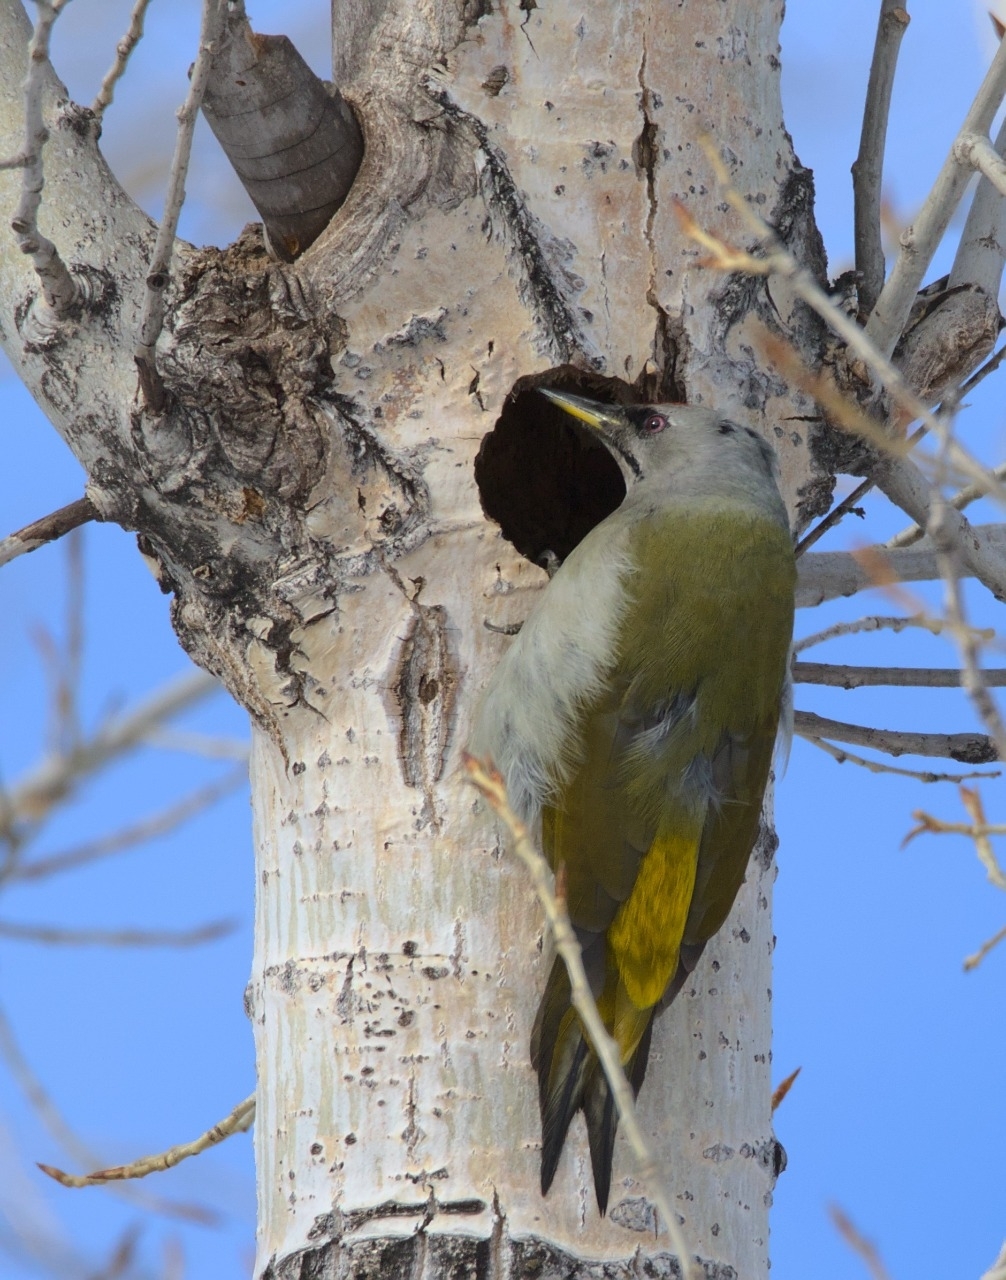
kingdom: Animalia
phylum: Chordata
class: Aves
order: Piciformes
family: Picidae
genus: Picus
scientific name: Picus canus
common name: Grey-headed woodpecker
